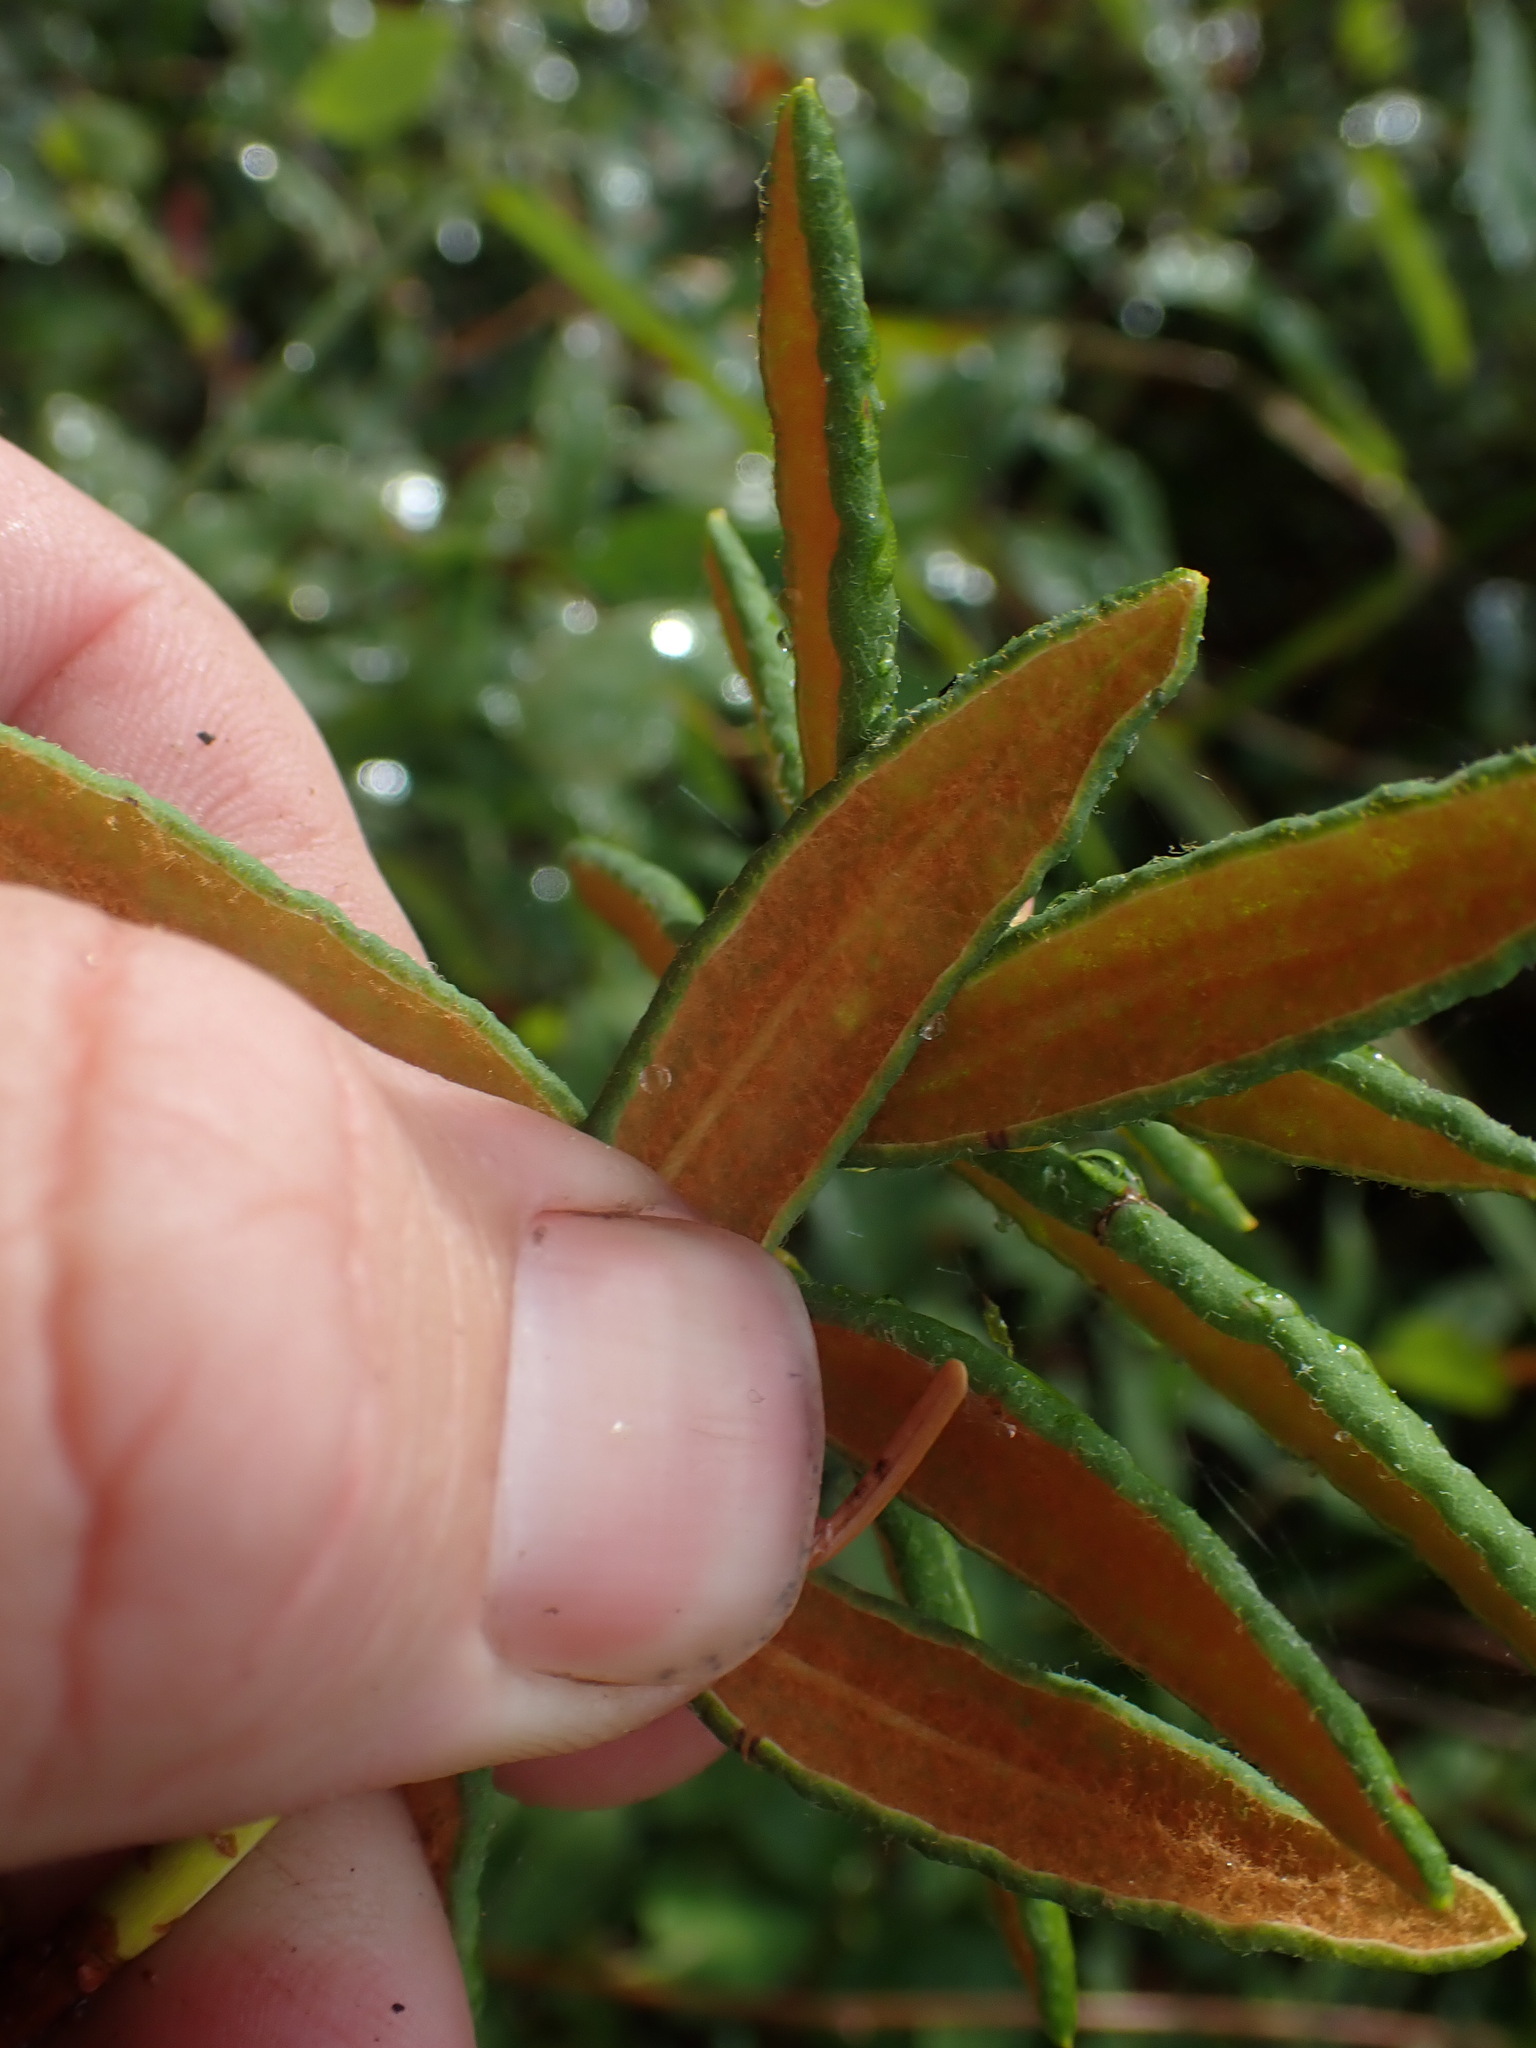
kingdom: Plantae
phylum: Tracheophyta
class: Magnoliopsida
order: Ericales
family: Ericaceae
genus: Rhododendron
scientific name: Rhododendron groenlandicum
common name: Bog labrador tea
